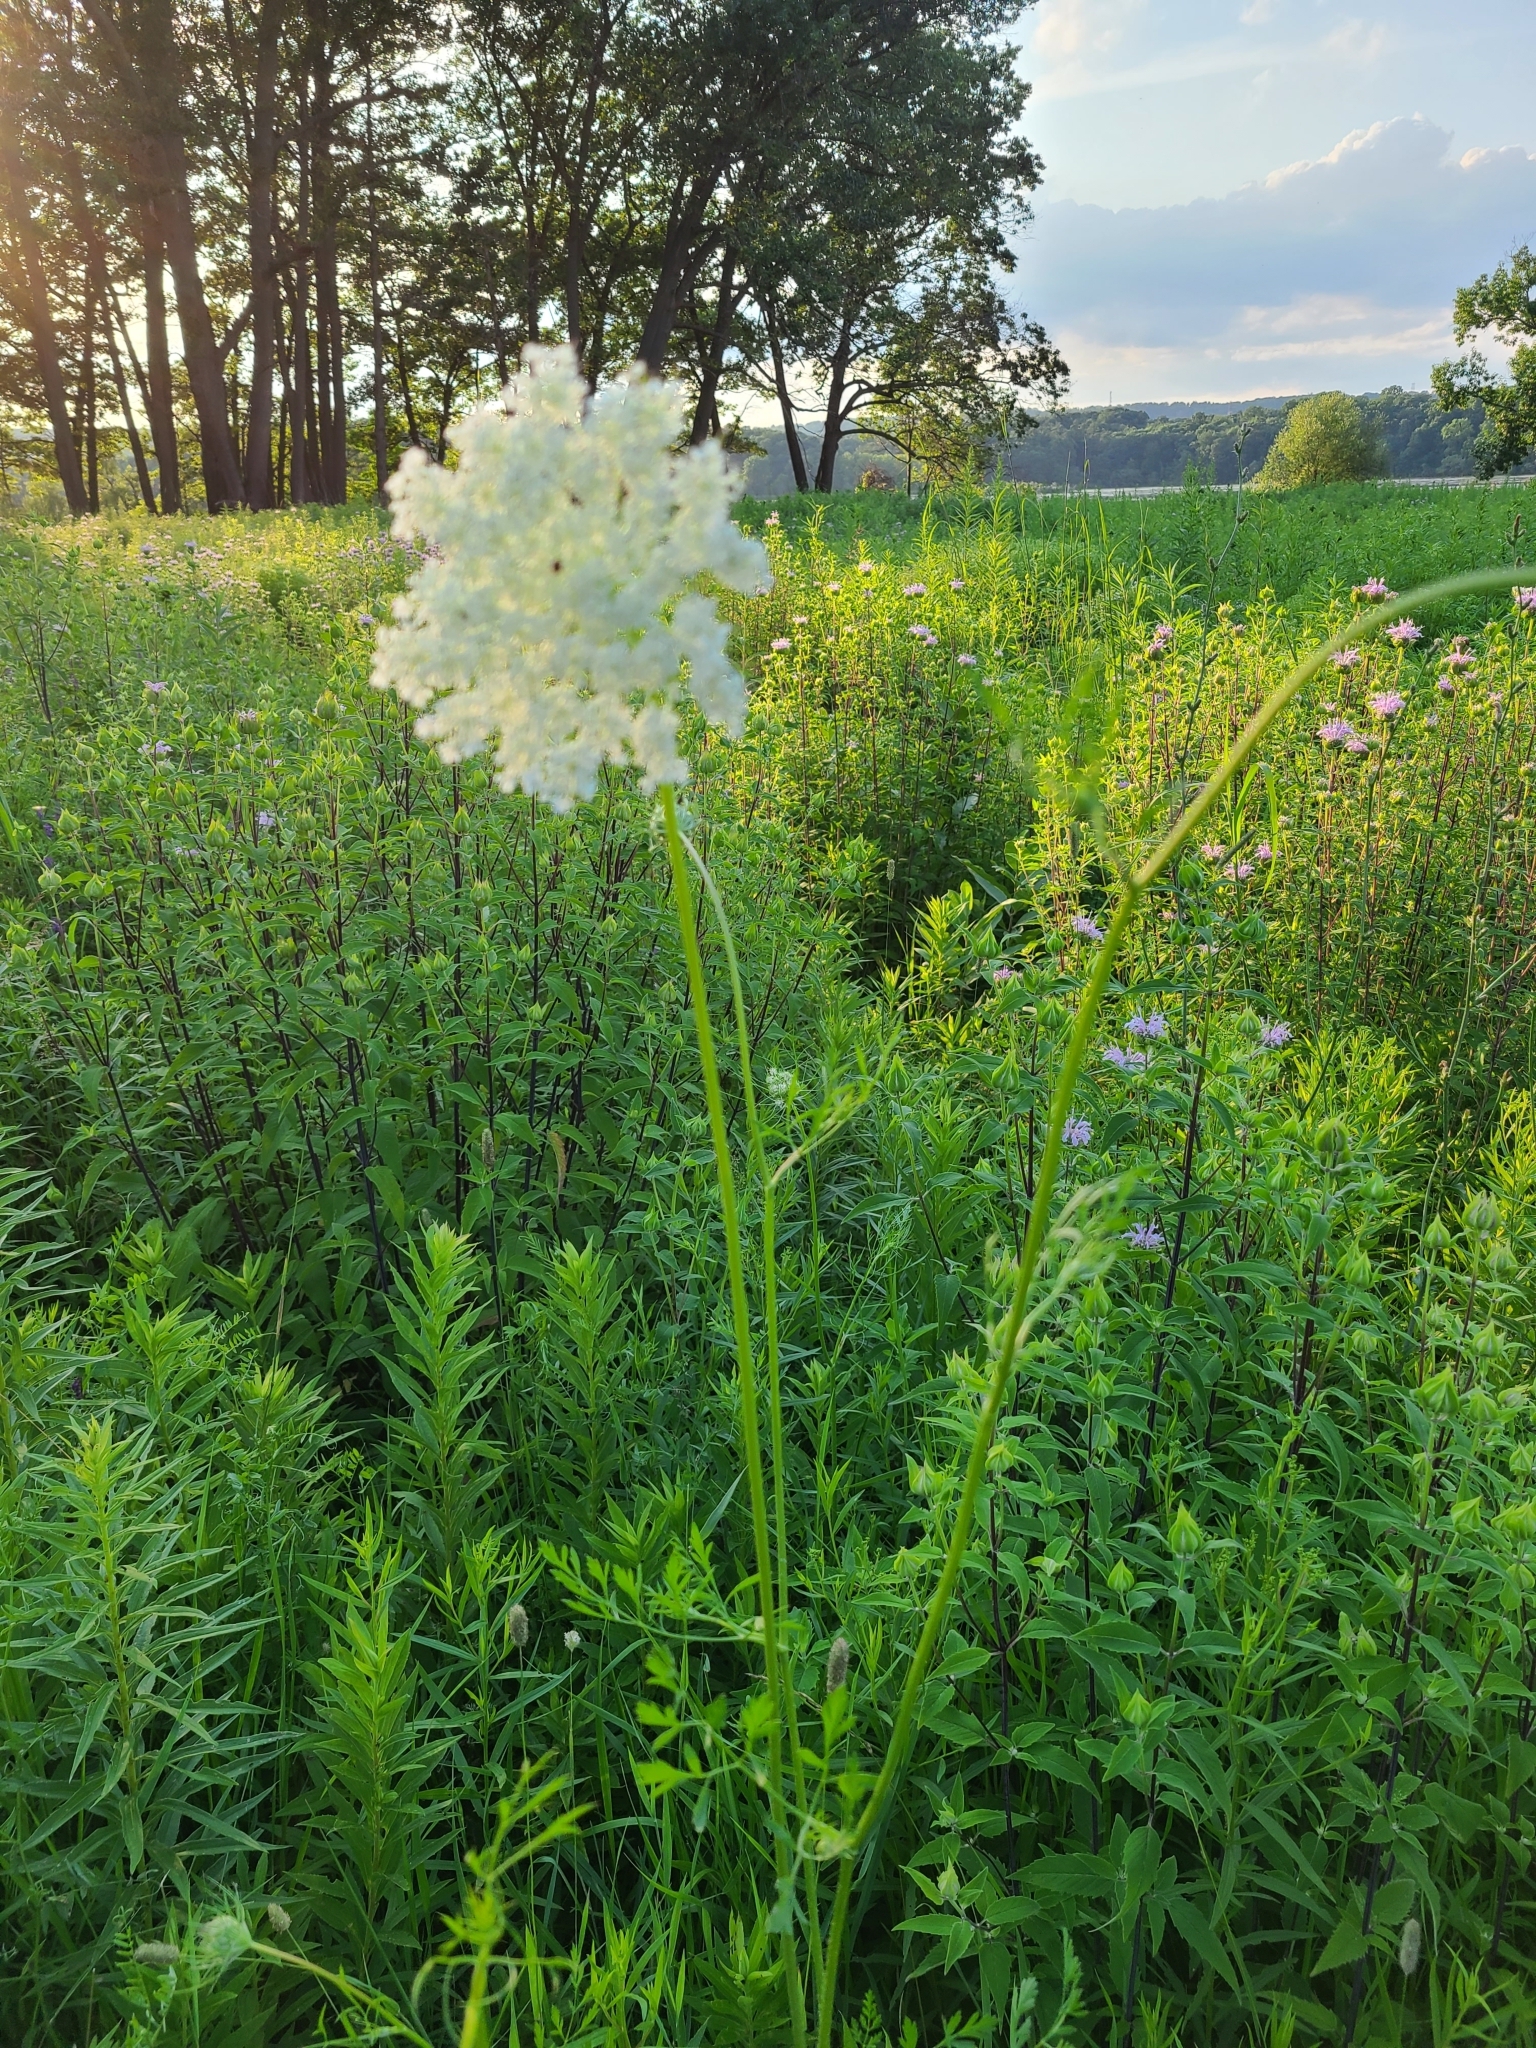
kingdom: Plantae
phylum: Tracheophyta
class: Magnoliopsida
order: Apiales
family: Apiaceae
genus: Daucus
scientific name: Daucus carota
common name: Wild carrot
